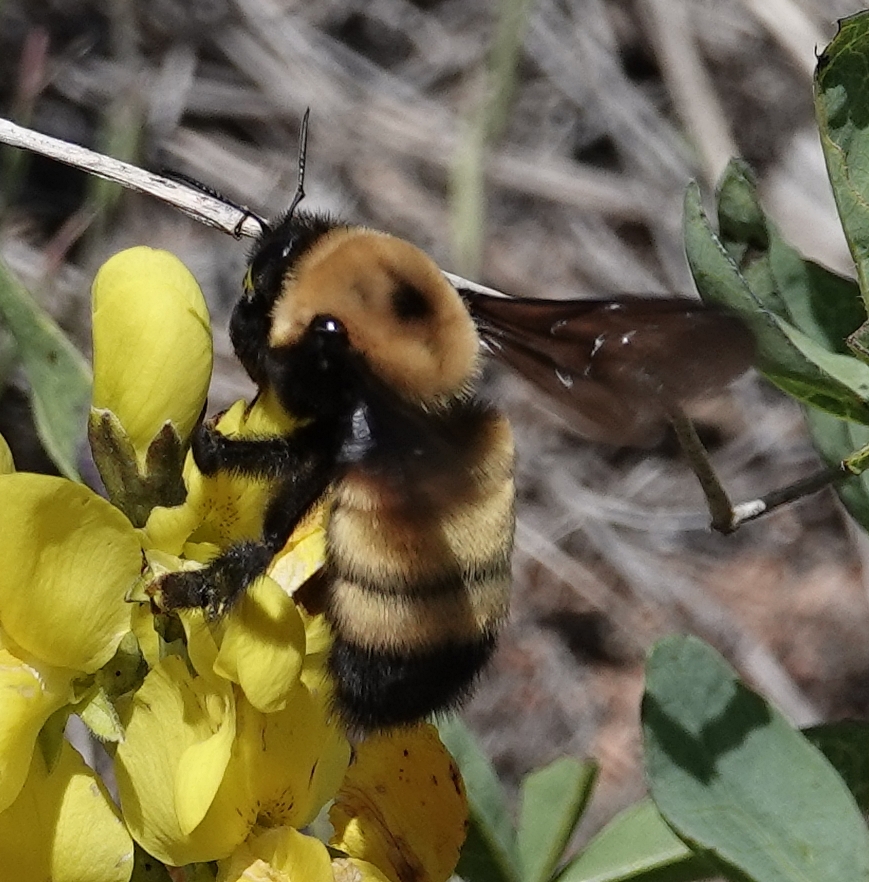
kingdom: Animalia
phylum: Arthropoda
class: Insecta
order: Hymenoptera
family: Apidae
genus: Bombus
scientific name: Bombus nevadensis
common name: Nevada bumble bee
